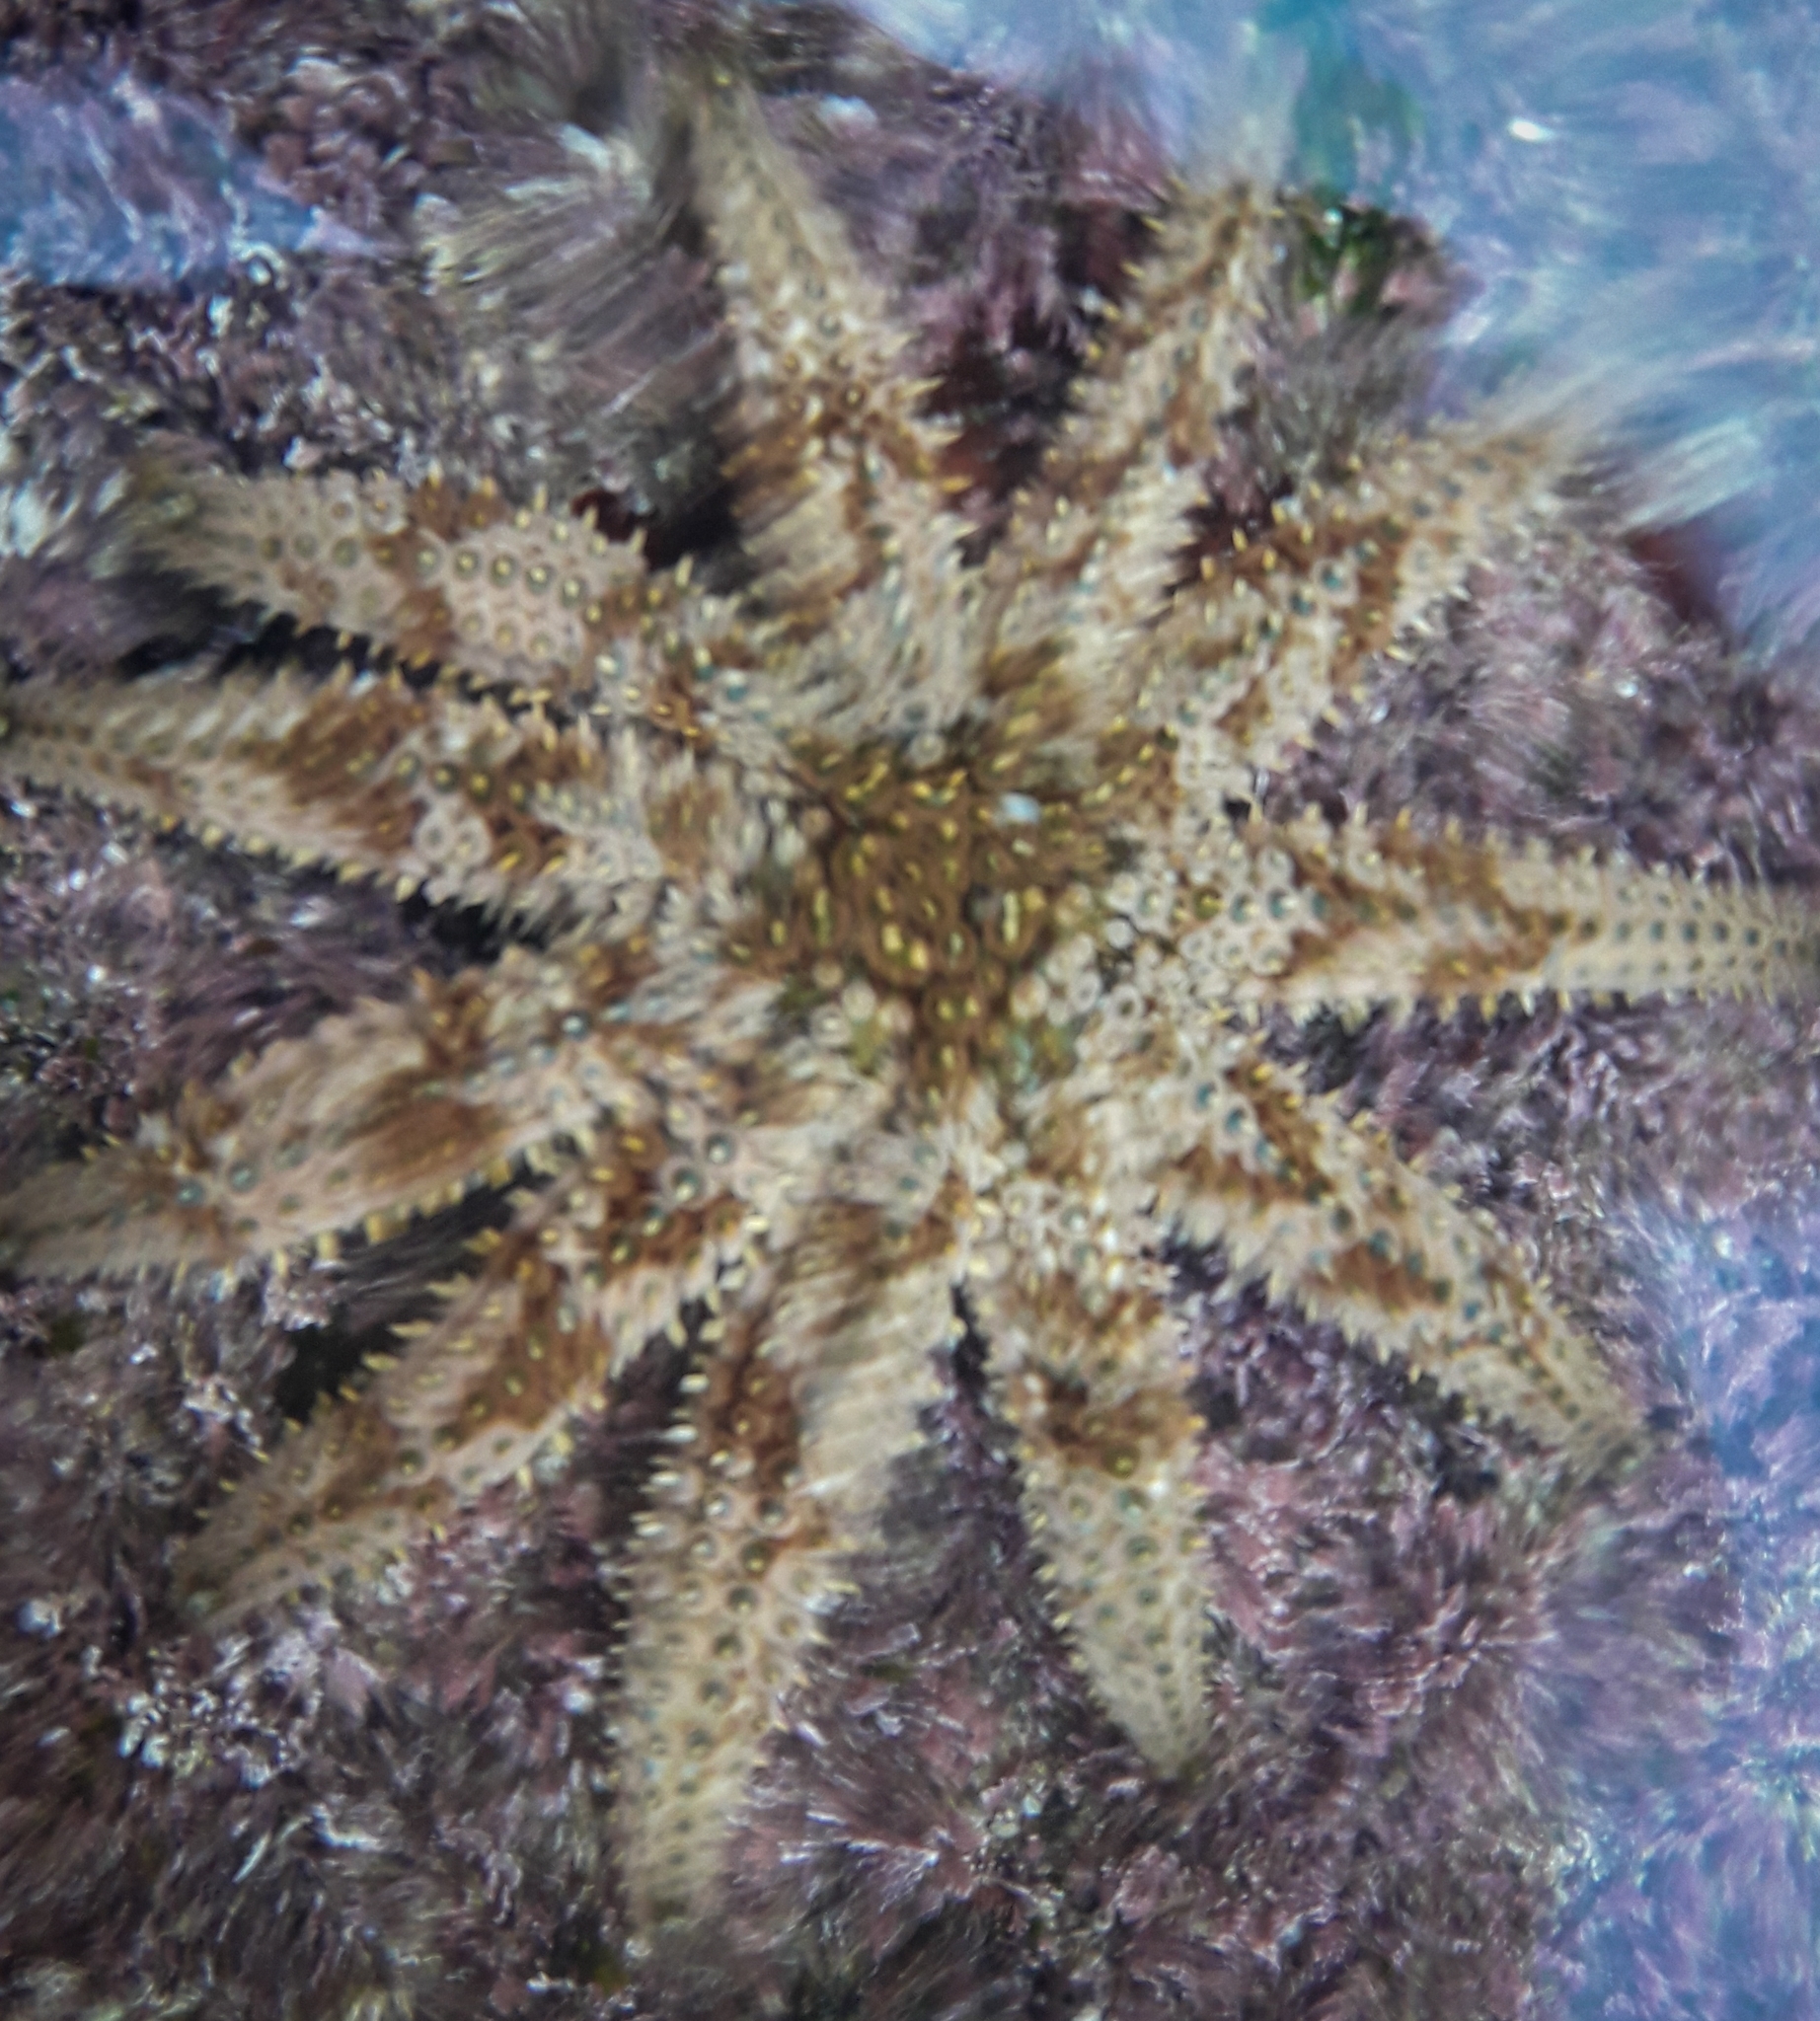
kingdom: Animalia
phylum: Echinodermata
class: Asteroidea
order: Forcipulatida
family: Asteriidae
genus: Coscinasterias
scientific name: Coscinasterias muricata
